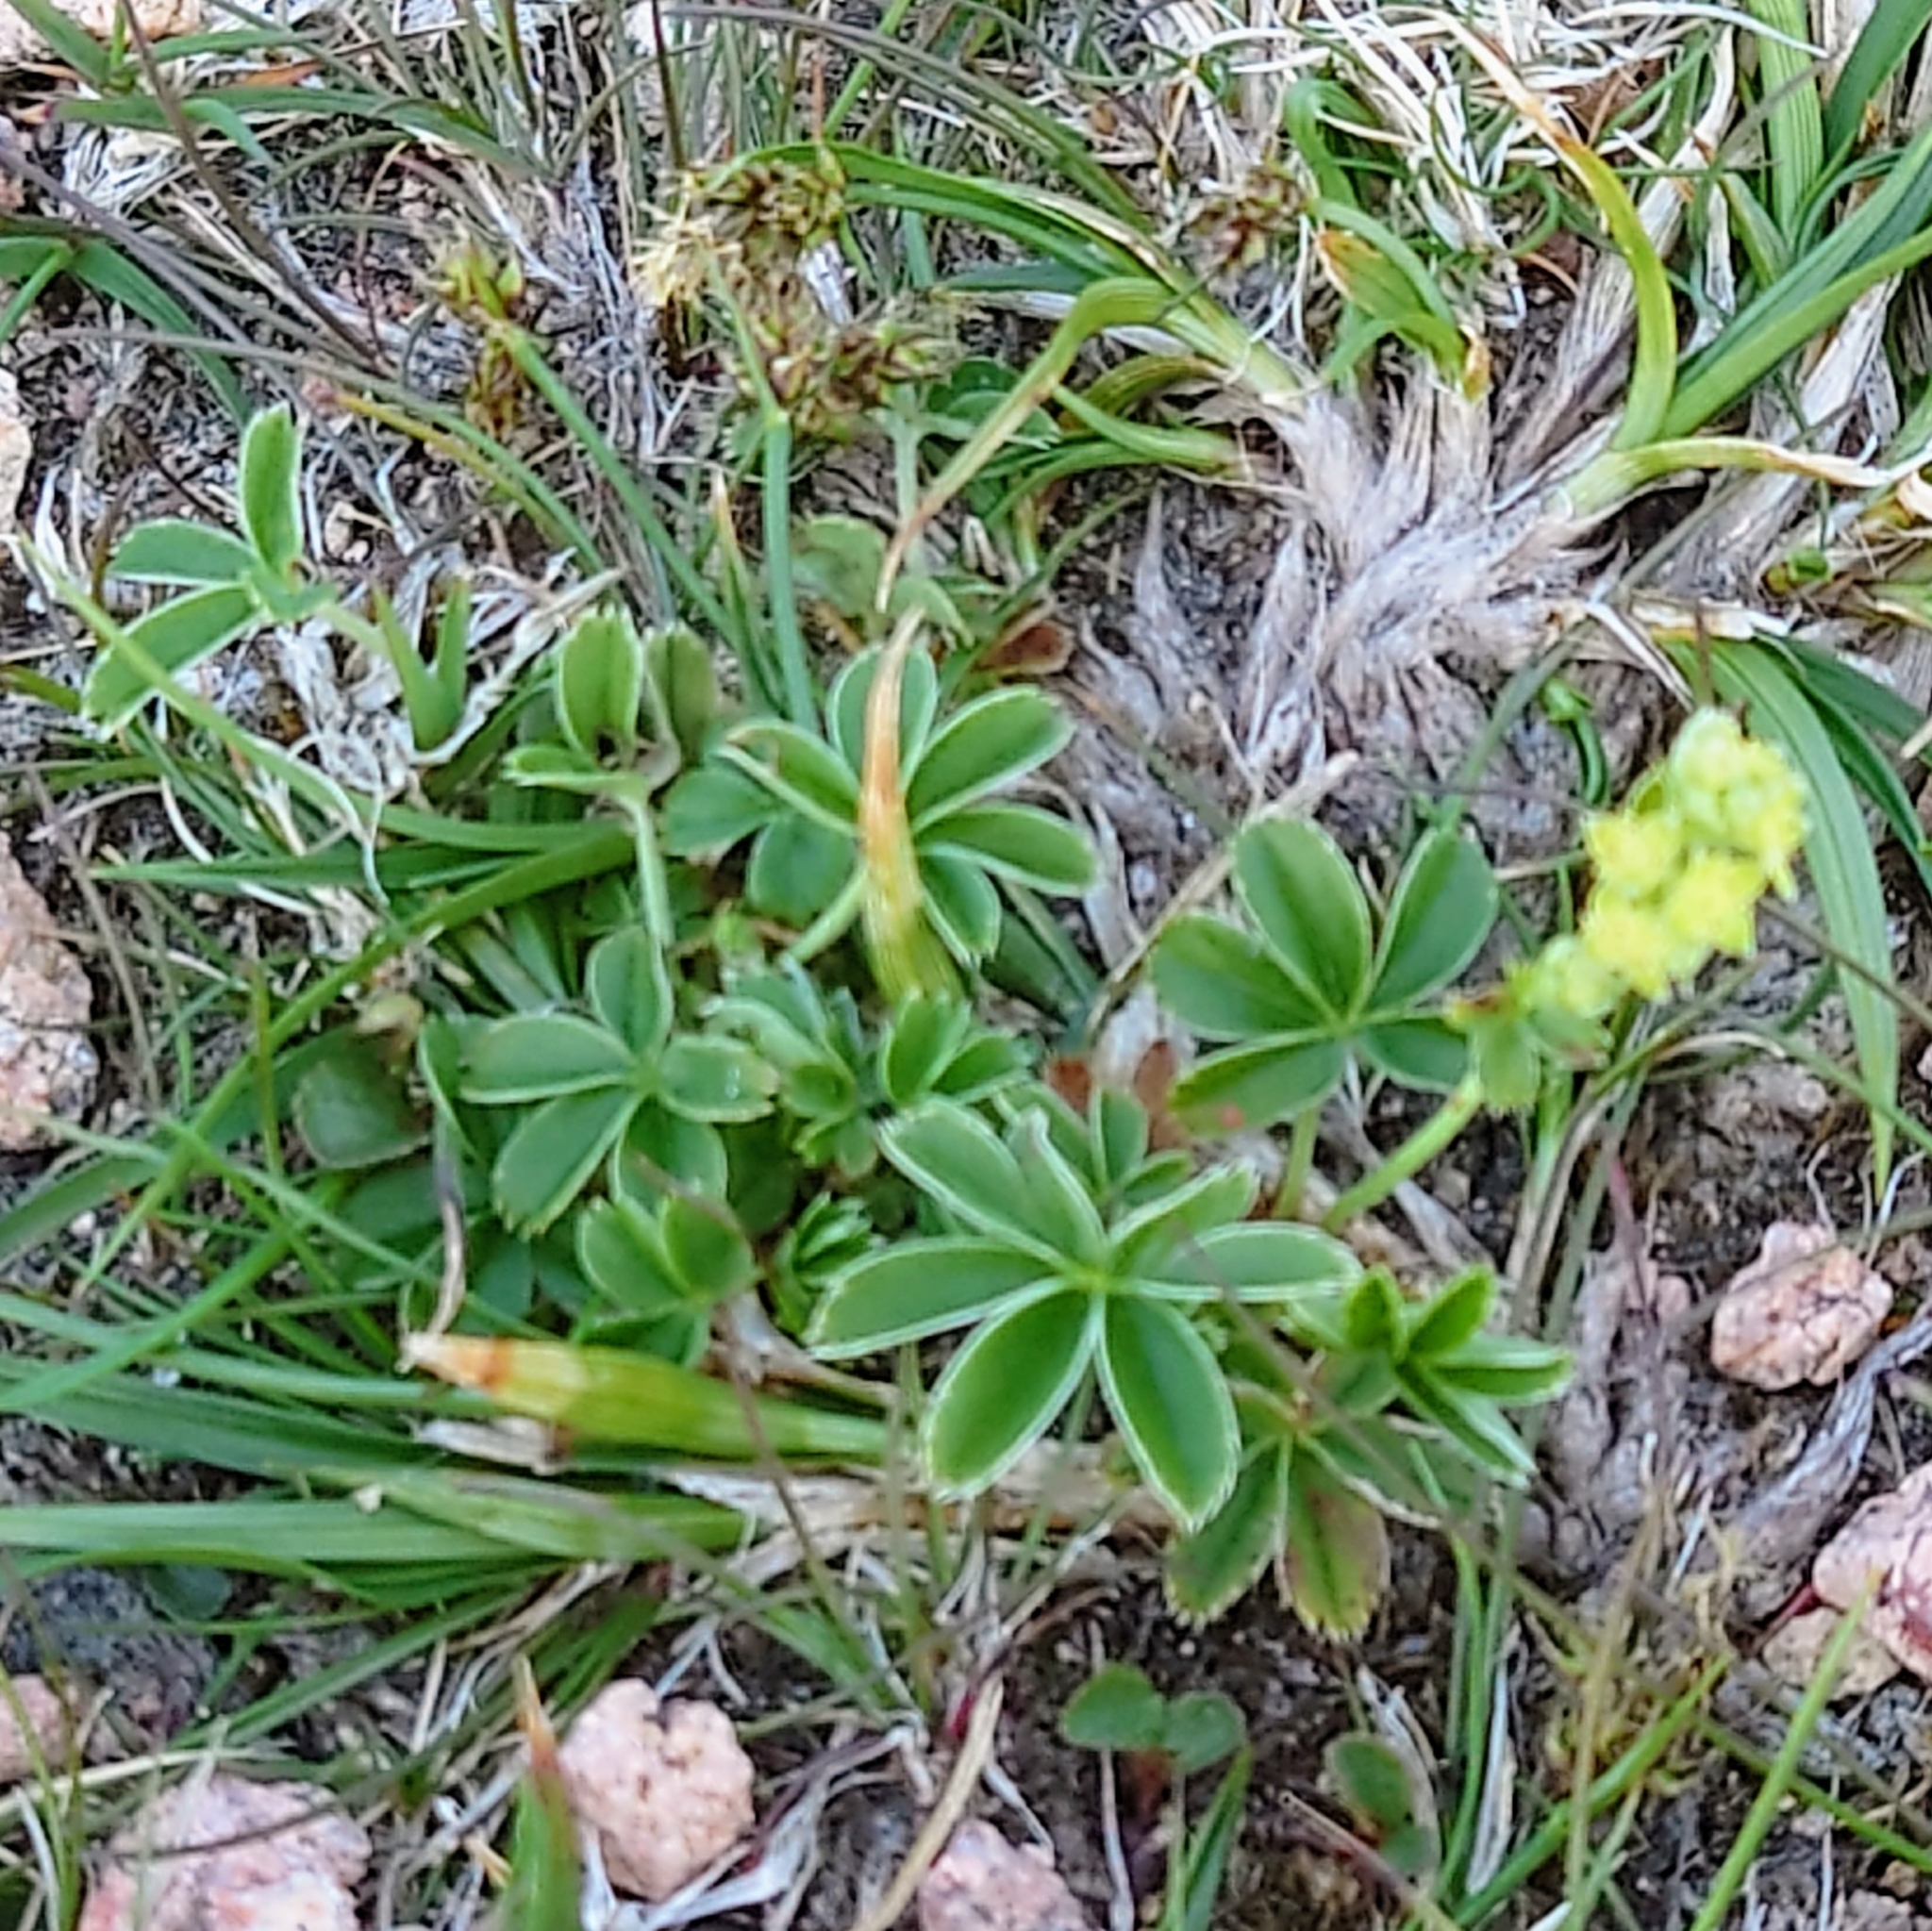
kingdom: Plantae
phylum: Tracheophyta
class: Magnoliopsida
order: Rosales
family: Rosaceae
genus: Alchemilla
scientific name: Alchemilla alpina
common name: Alpine lady's-mantle
